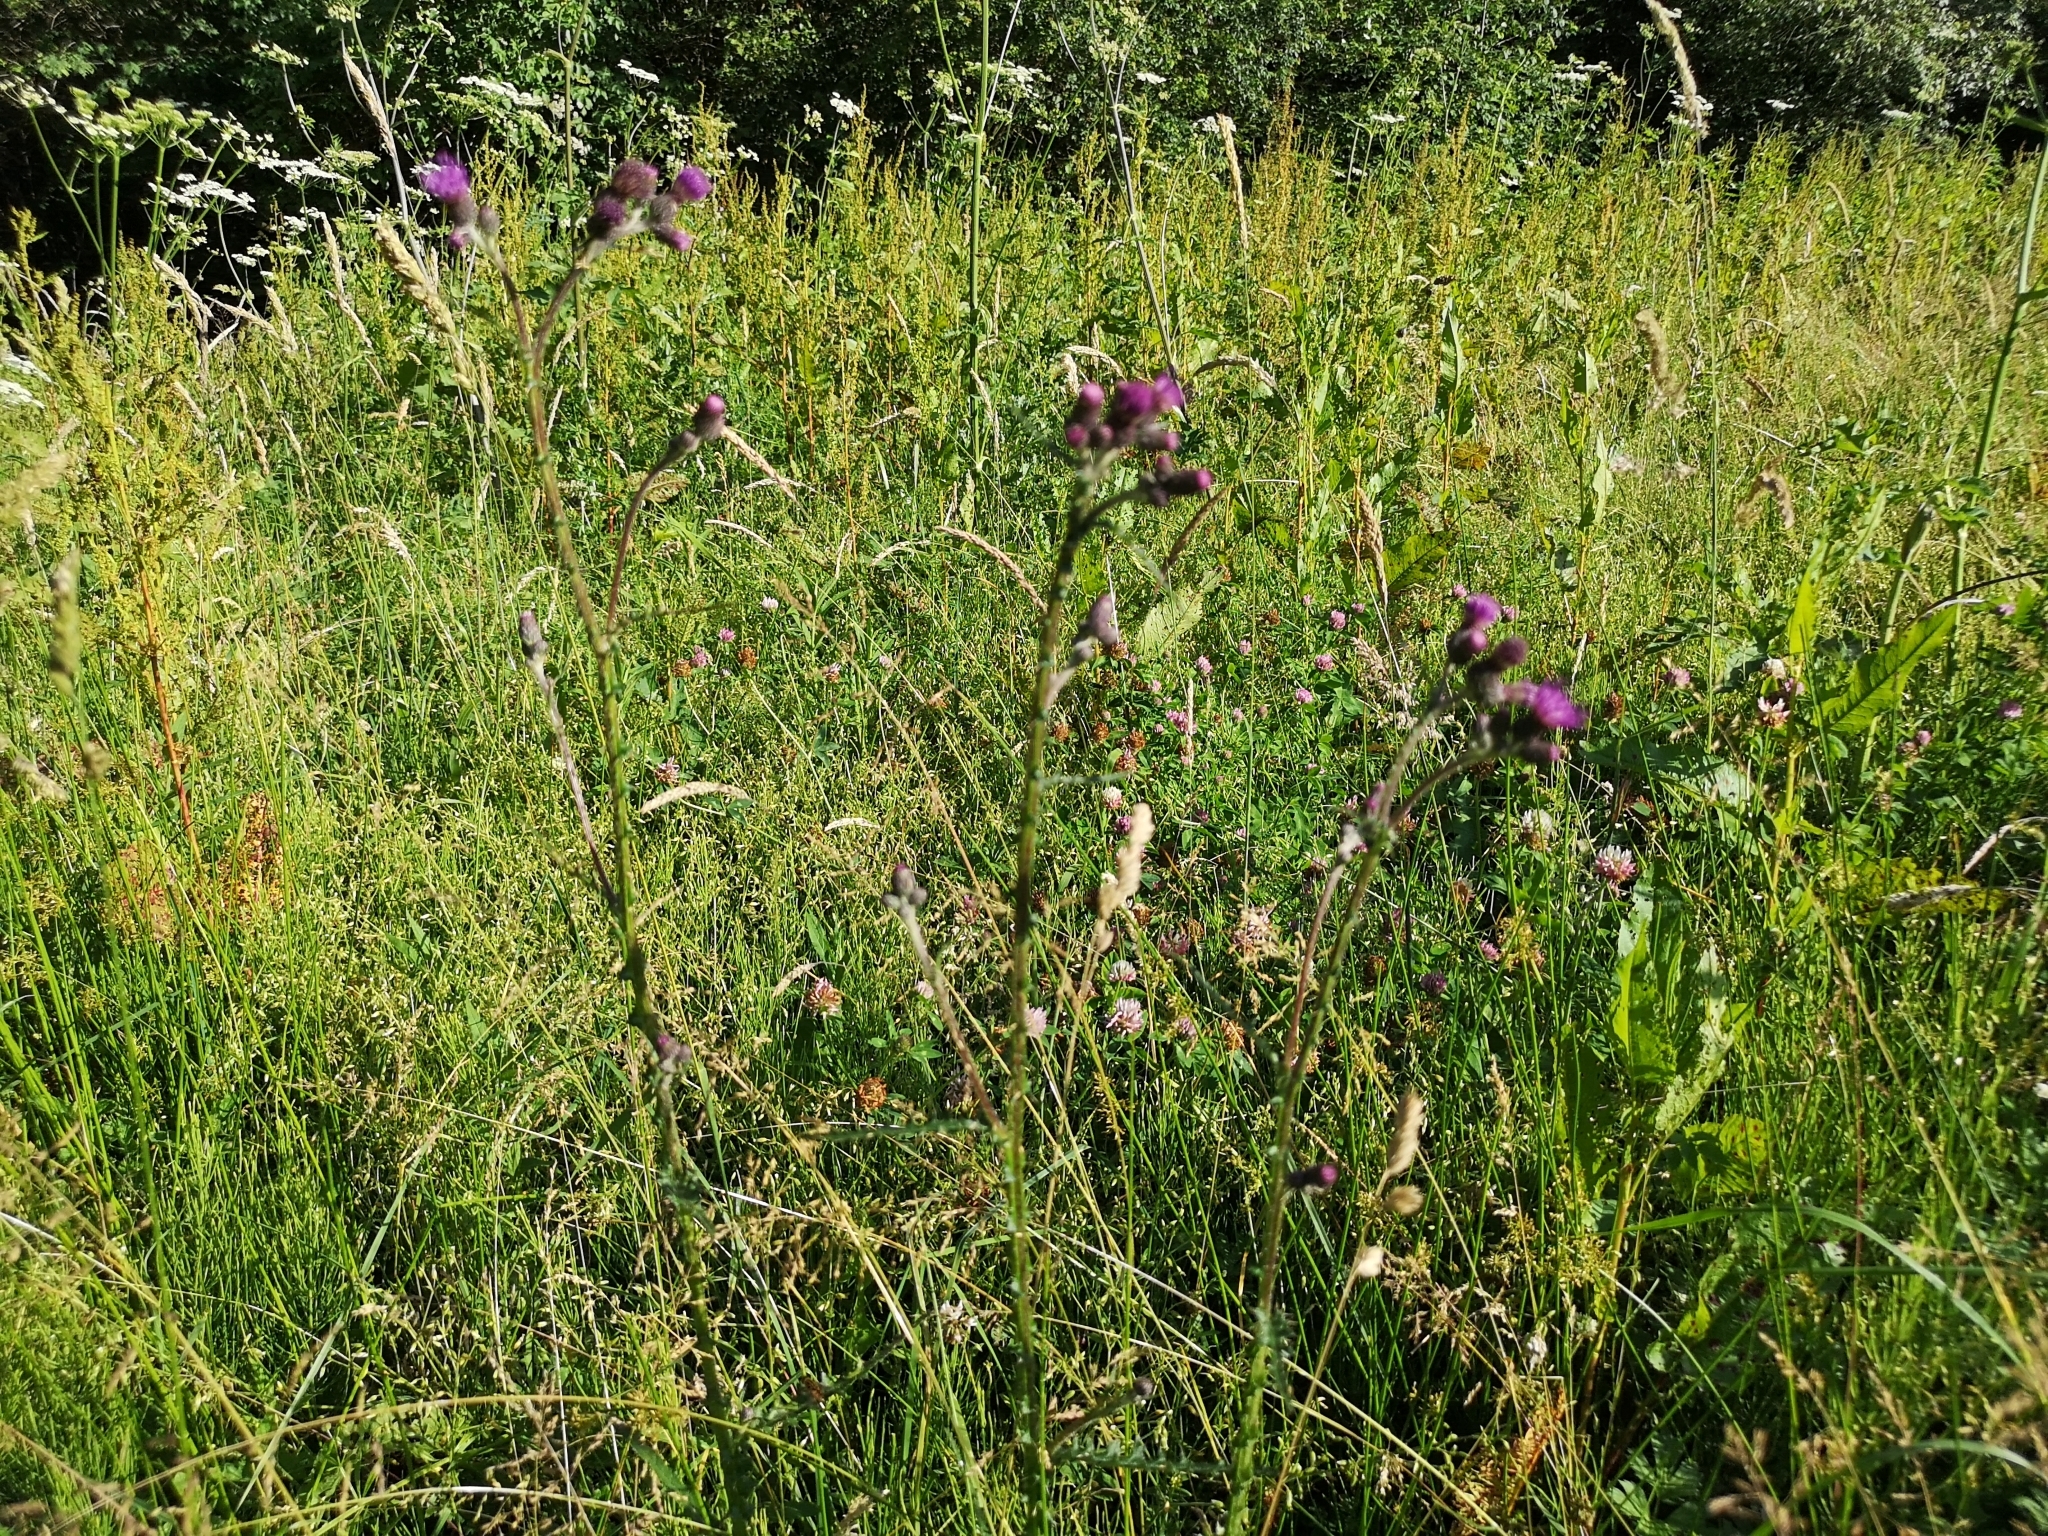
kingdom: Plantae
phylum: Tracheophyta
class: Magnoliopsida
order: Asterales
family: Asteraceae
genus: Cirsium
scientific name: Cirsium palustre
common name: Marsh thistle
